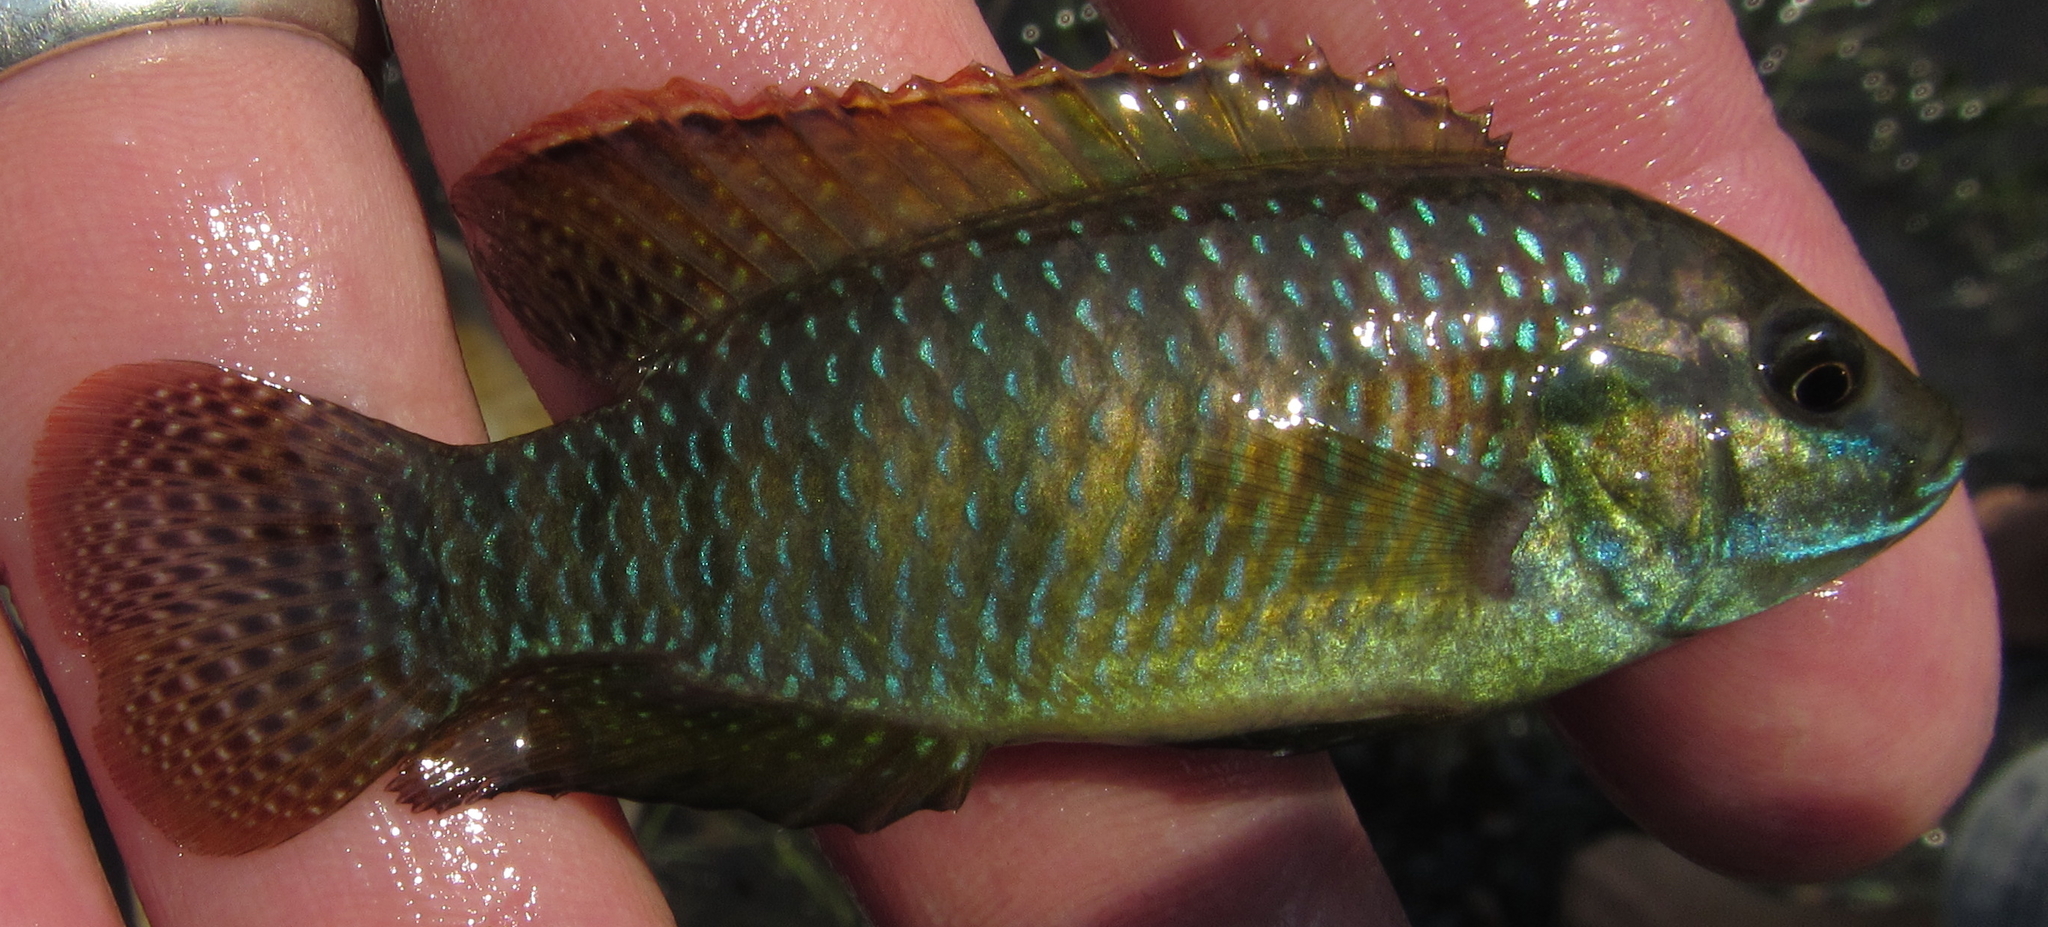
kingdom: Animalia
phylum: Chordata
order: Perciformes
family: Cichlidae
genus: Tilapia
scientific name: Tilapia ruweti
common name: Okavango tilapia
